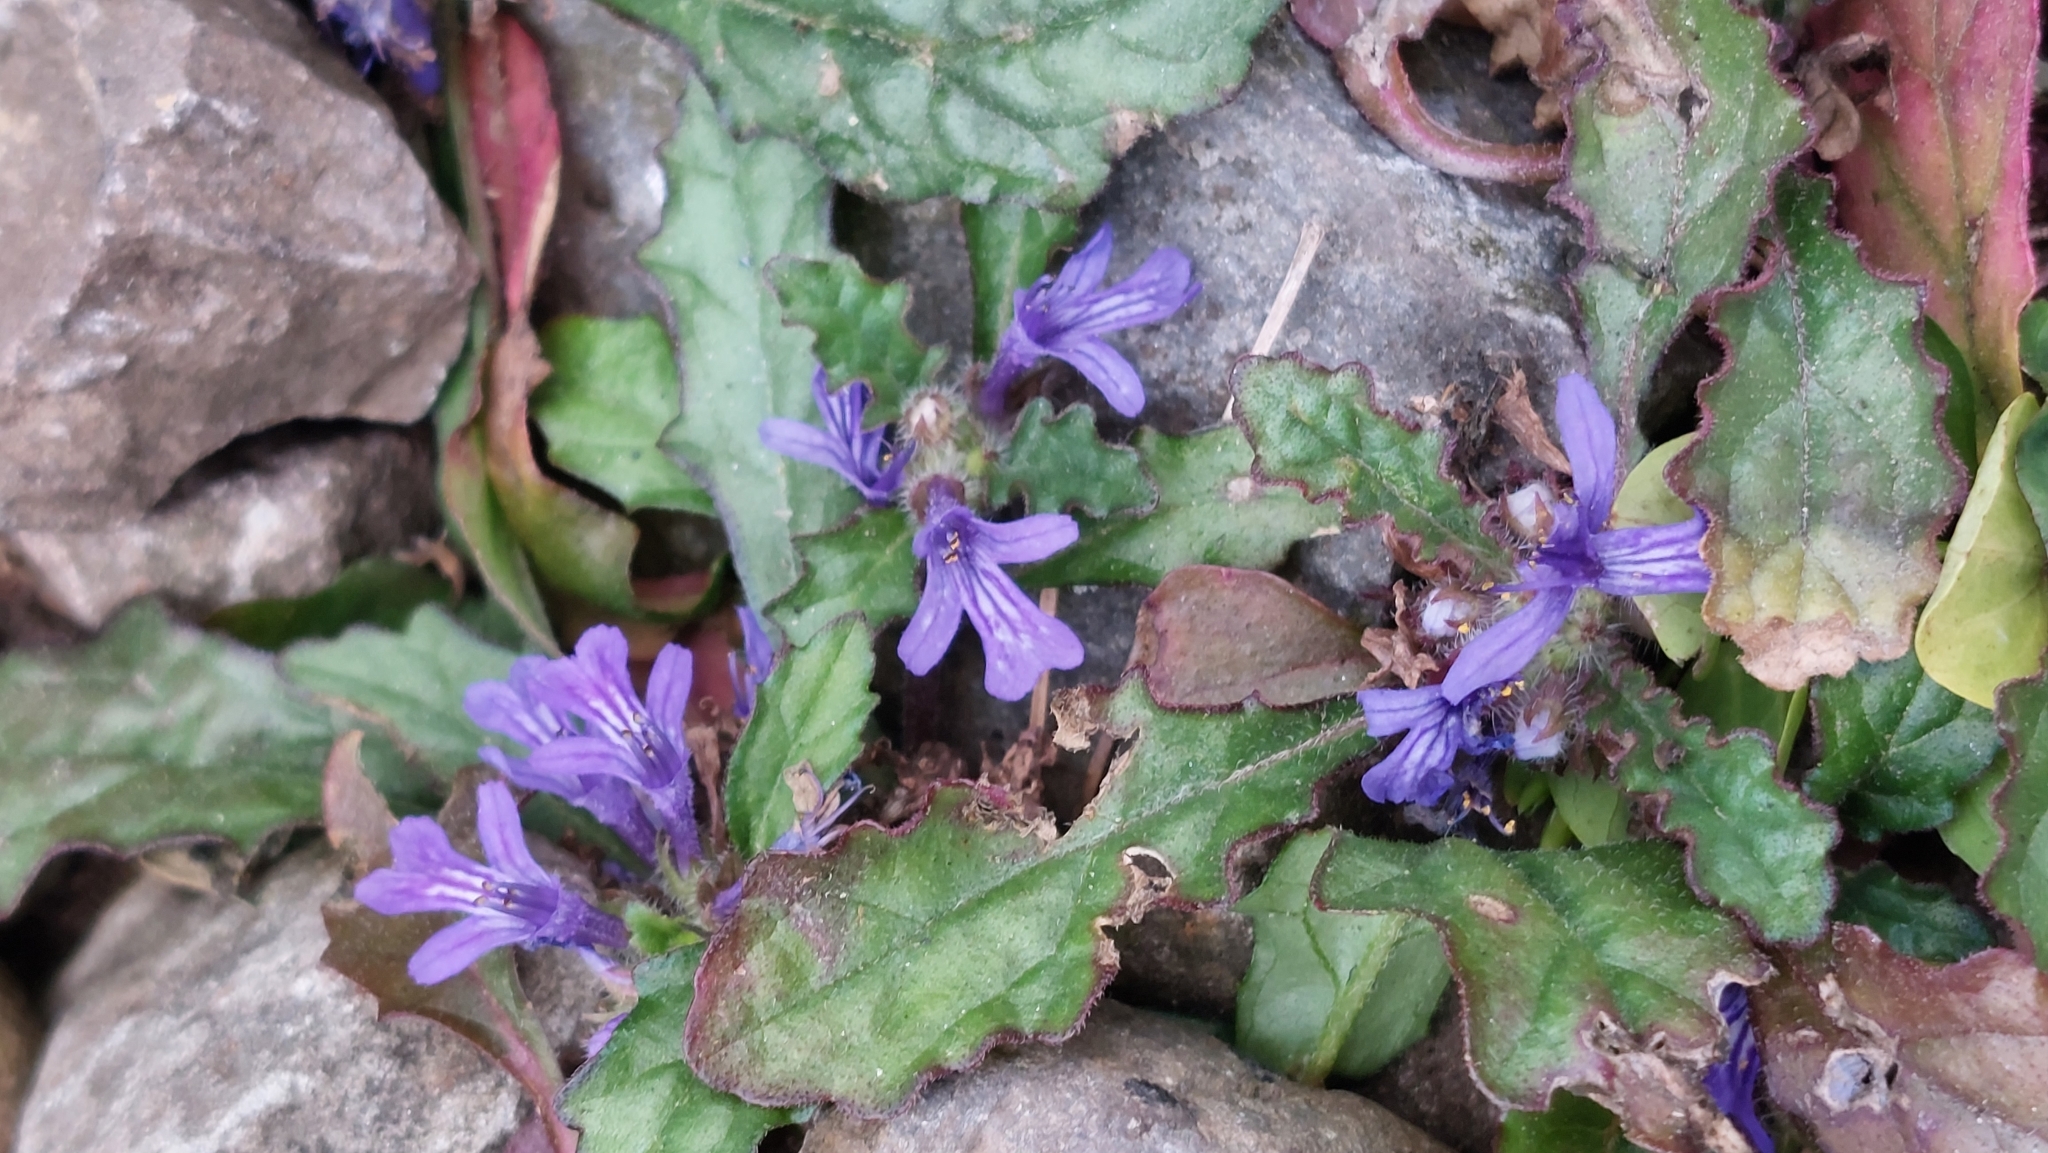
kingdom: Plantae
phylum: Tracheophyta
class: Magnoliopsida
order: Lamiales
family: Lamiaceae
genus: Ajuga
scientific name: Ajuga decumbens
